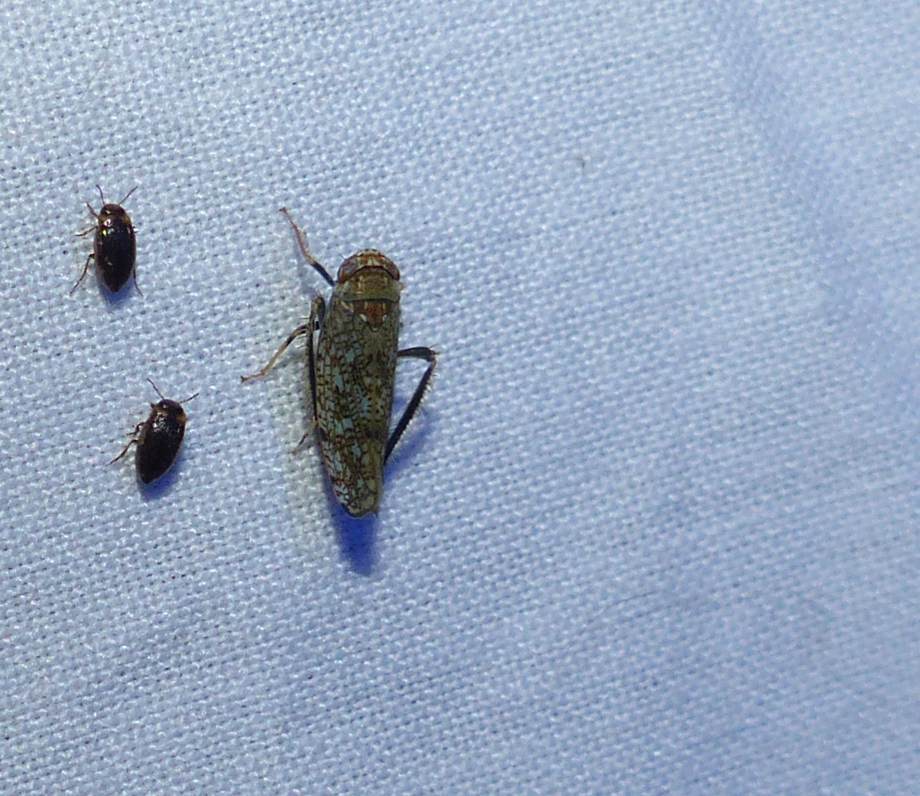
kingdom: Animalia
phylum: Arthropoda
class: Insecta
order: Hemiptera
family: Cicadellidae
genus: Orientus
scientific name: Orientus ishidae
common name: Japanese leafhopper
